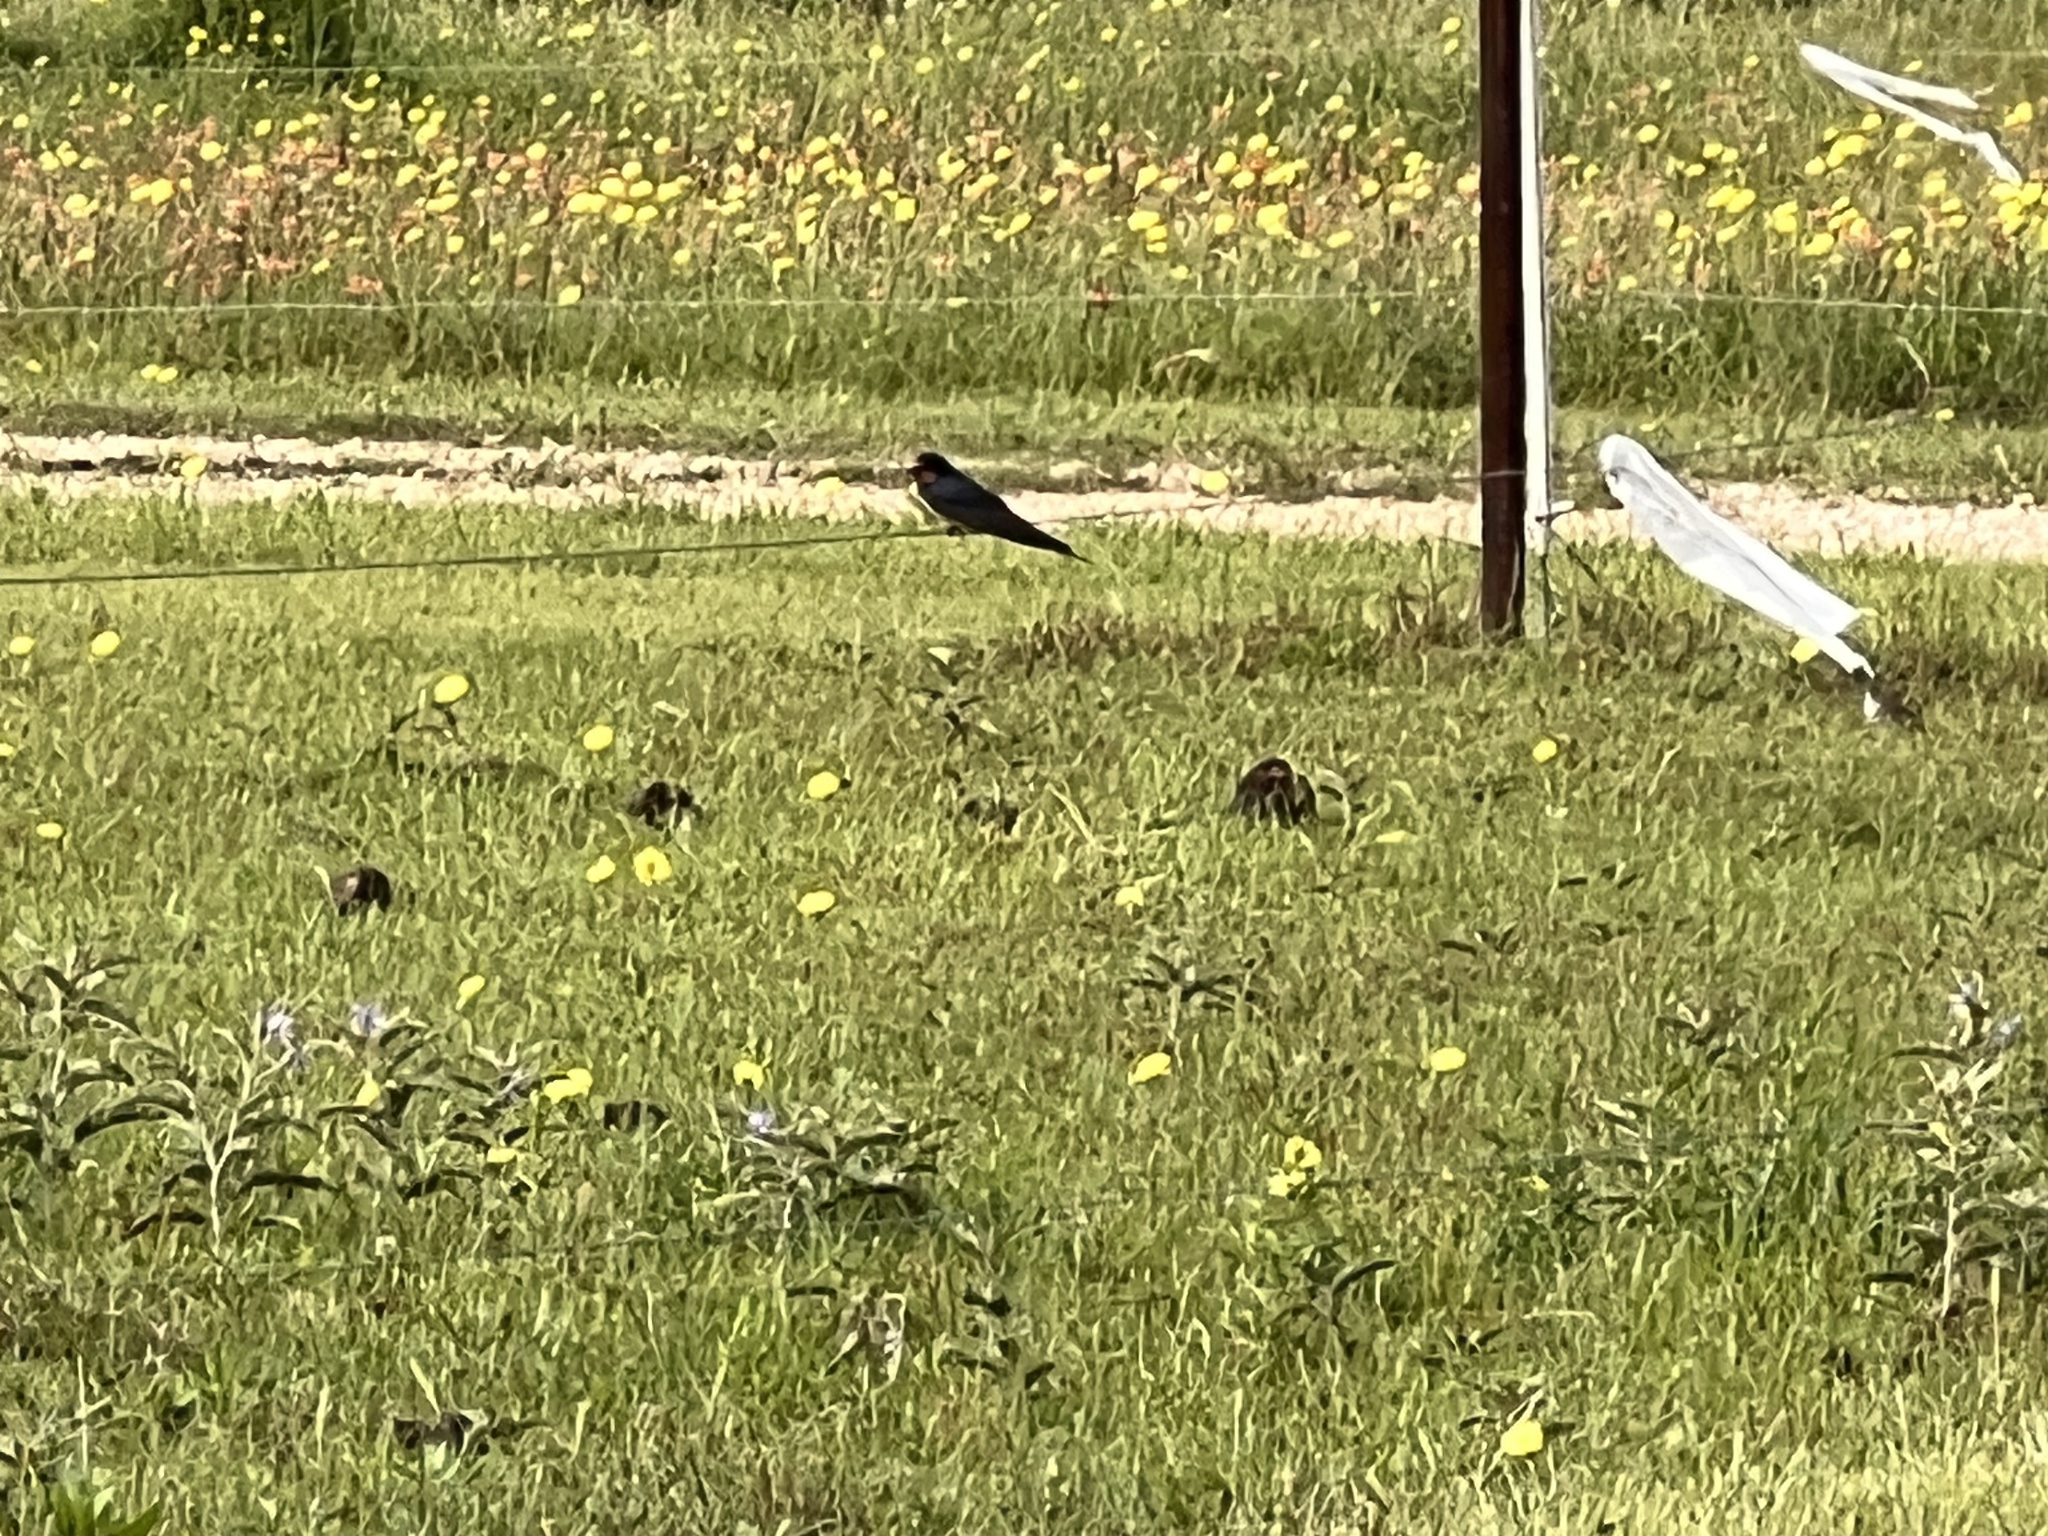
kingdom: Animalia
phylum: Chordata
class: Aves
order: Passeriformes
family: Hirundinidae
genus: Hirundo
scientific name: Hirundo rustica
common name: Barn swallow
